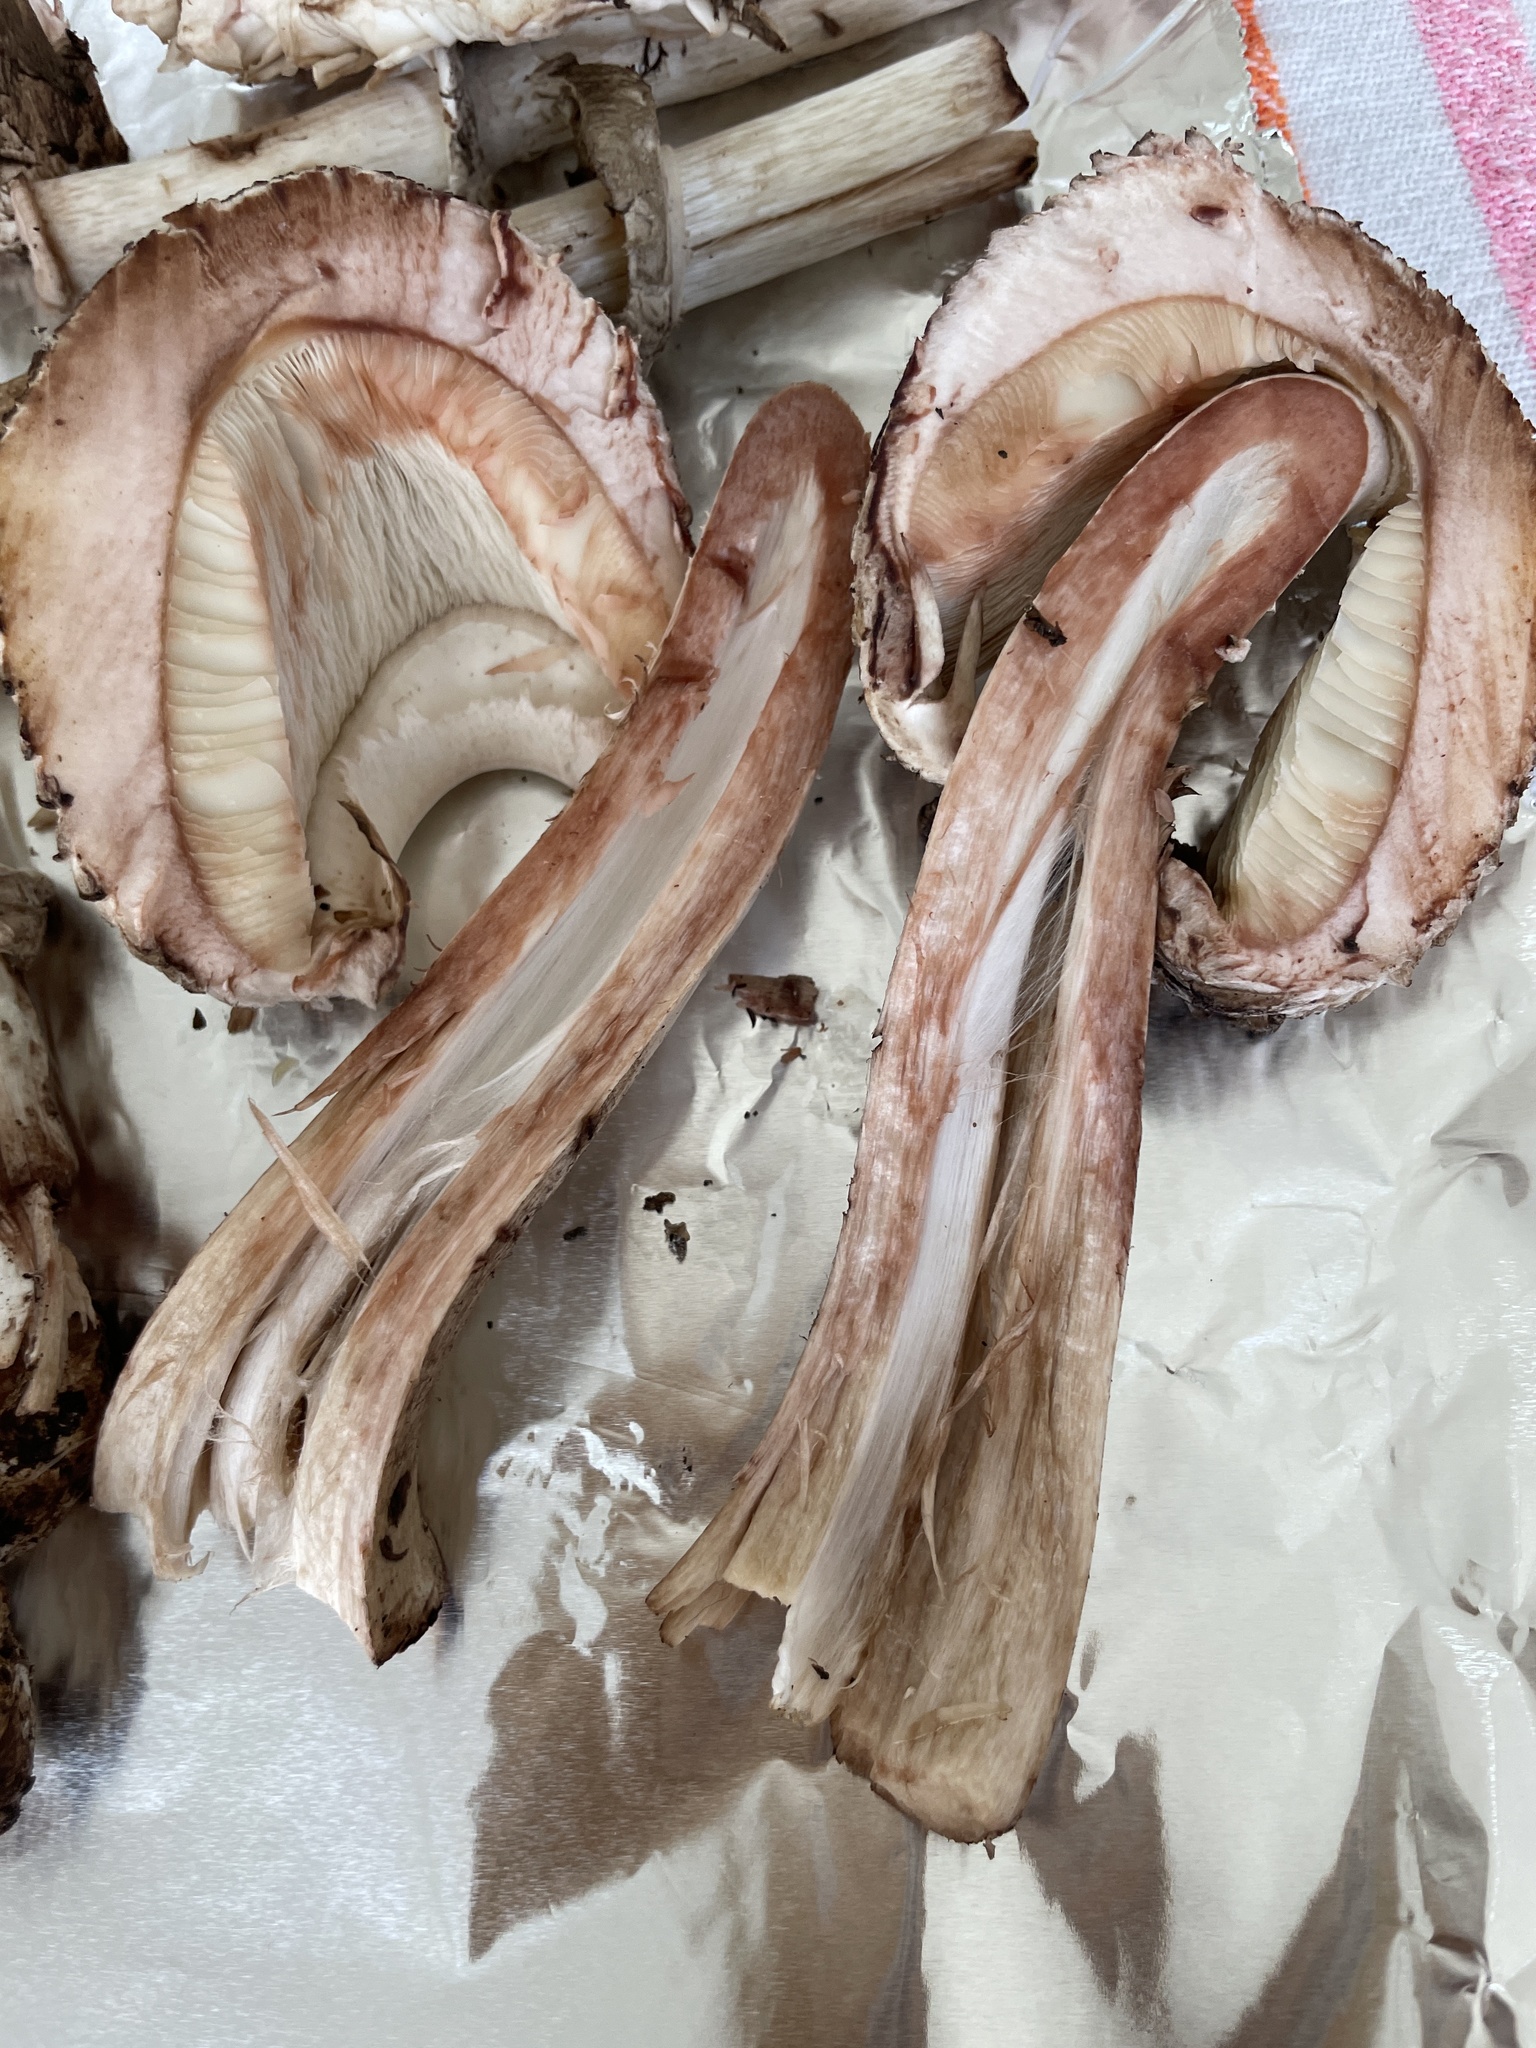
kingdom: Fungi
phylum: Basidiomycota
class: Agaricomycetes
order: Agaricales
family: Agaricaceae
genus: Chlorophyllum
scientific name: Chlorophyllum brunneum
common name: Brown parasol
